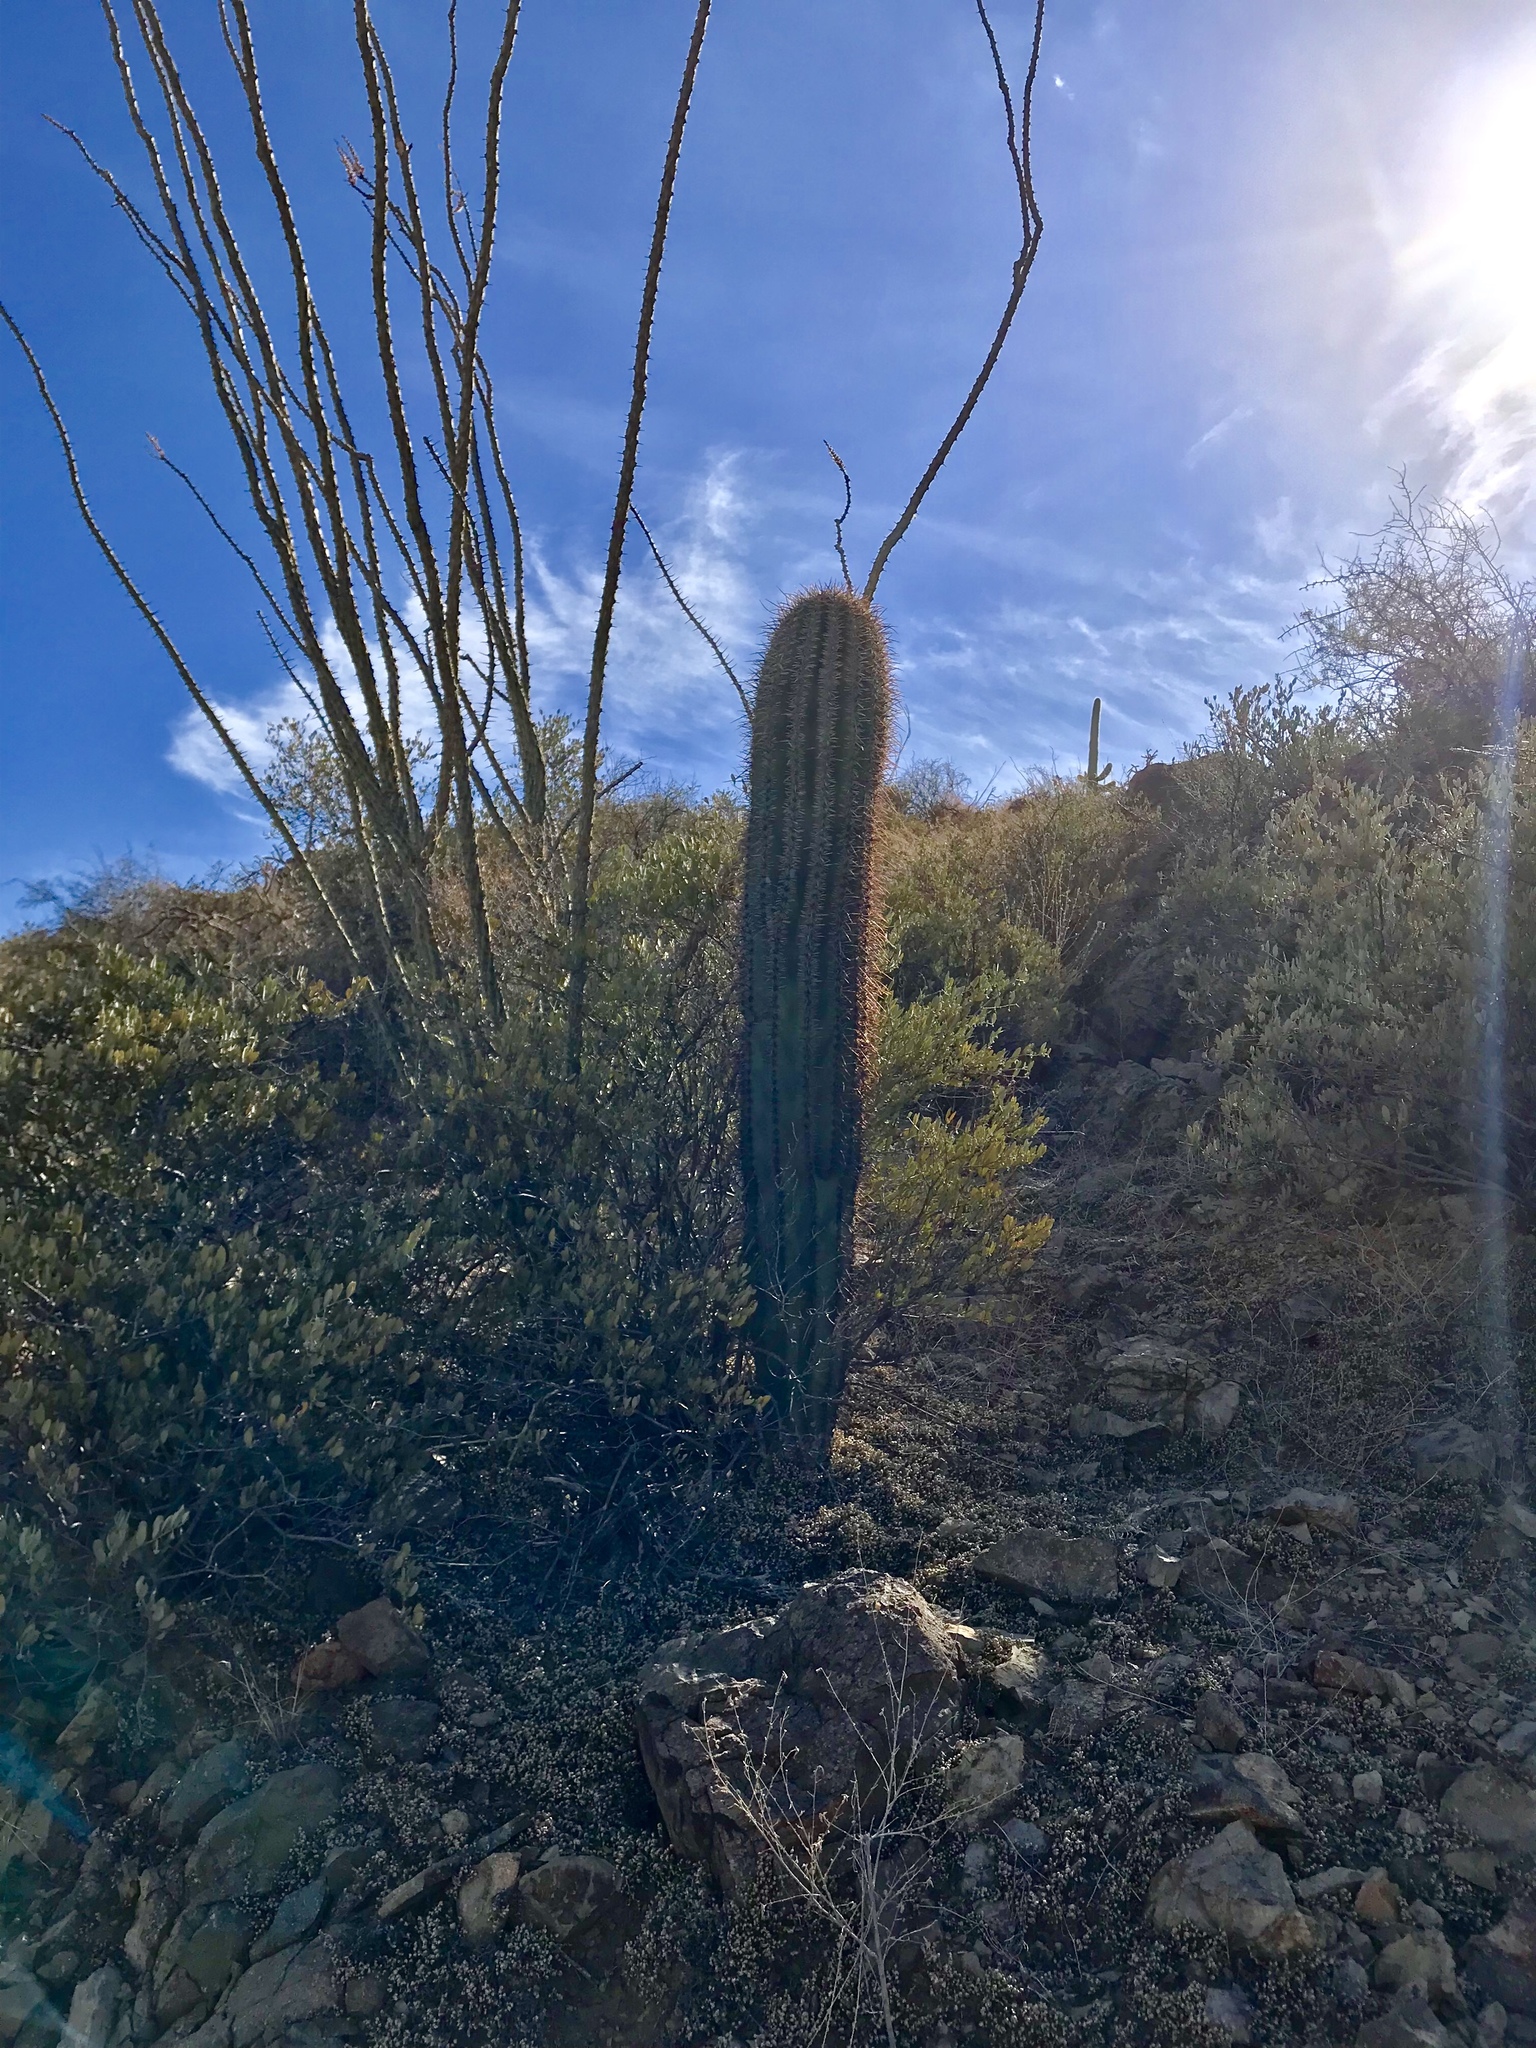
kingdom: Plantae
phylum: Tracheophyta
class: Magnoliopsida
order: Caryophyllales
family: Cactaceae
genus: Carnegiea
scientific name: Carnegiea gigantea
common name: Saguaro
